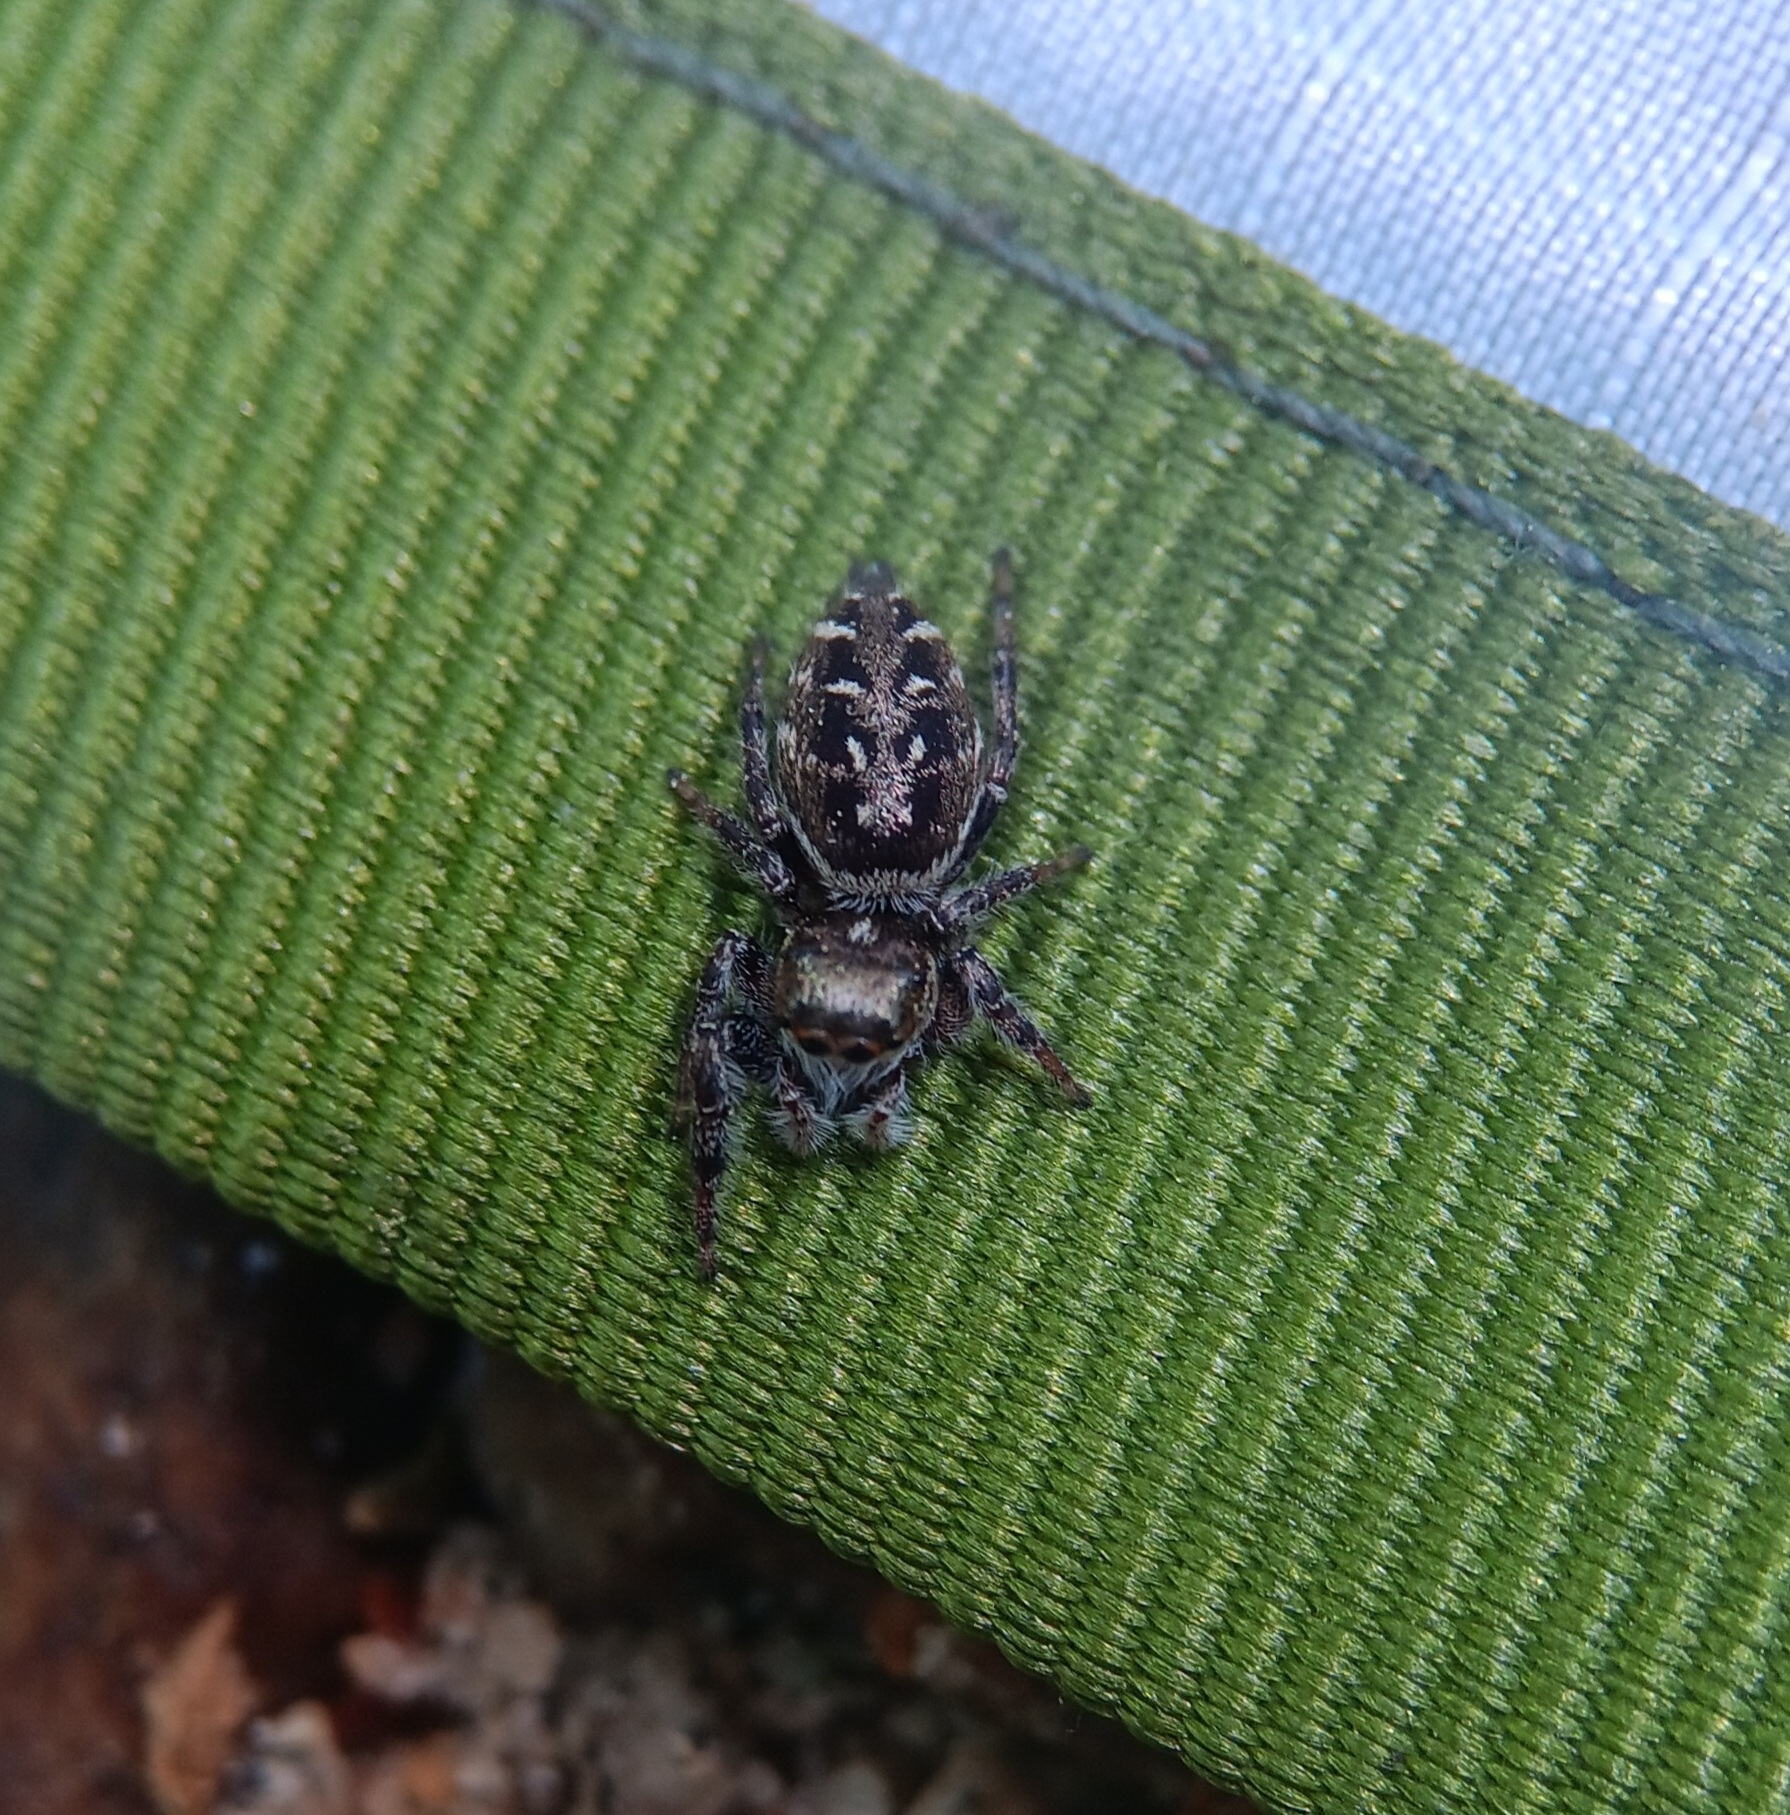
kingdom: Animalia
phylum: Arthropoda
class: Arachnida
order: Araneae
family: Salticidae
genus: Eris
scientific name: Eris militaris
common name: Bronze jumper
